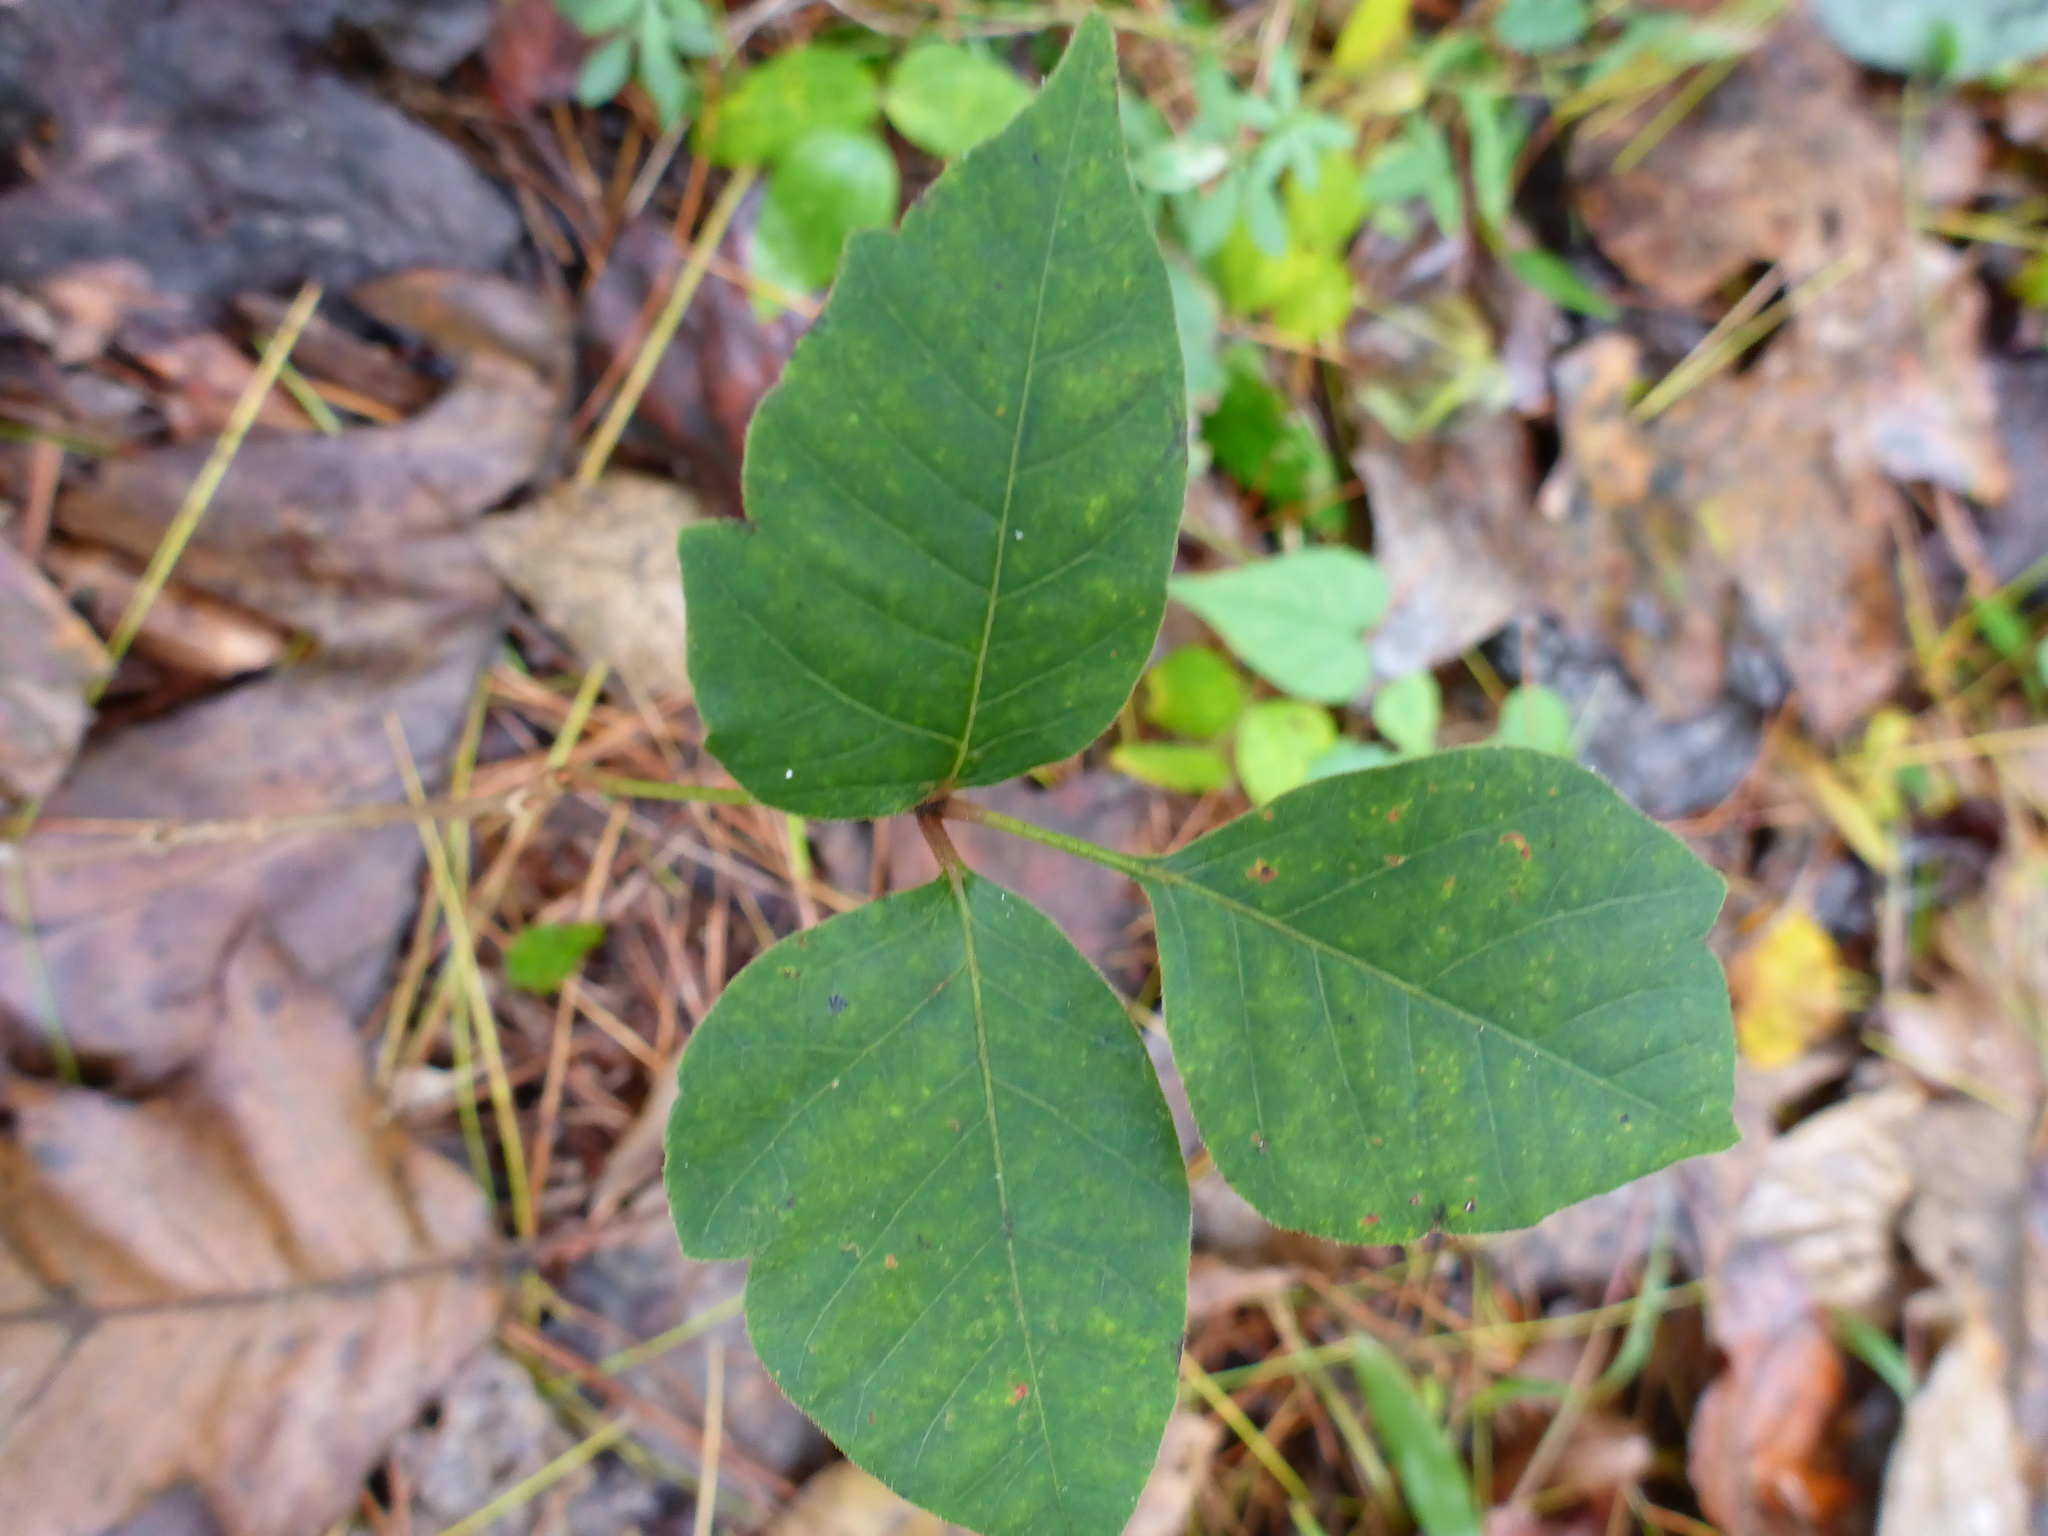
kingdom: Plantae
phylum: Tracheophyta
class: Magnoliopsida
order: Sapindales
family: Anacardiaceae
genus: Toxicodendron
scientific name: Toxicodendron radicans
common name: Poison ivy
